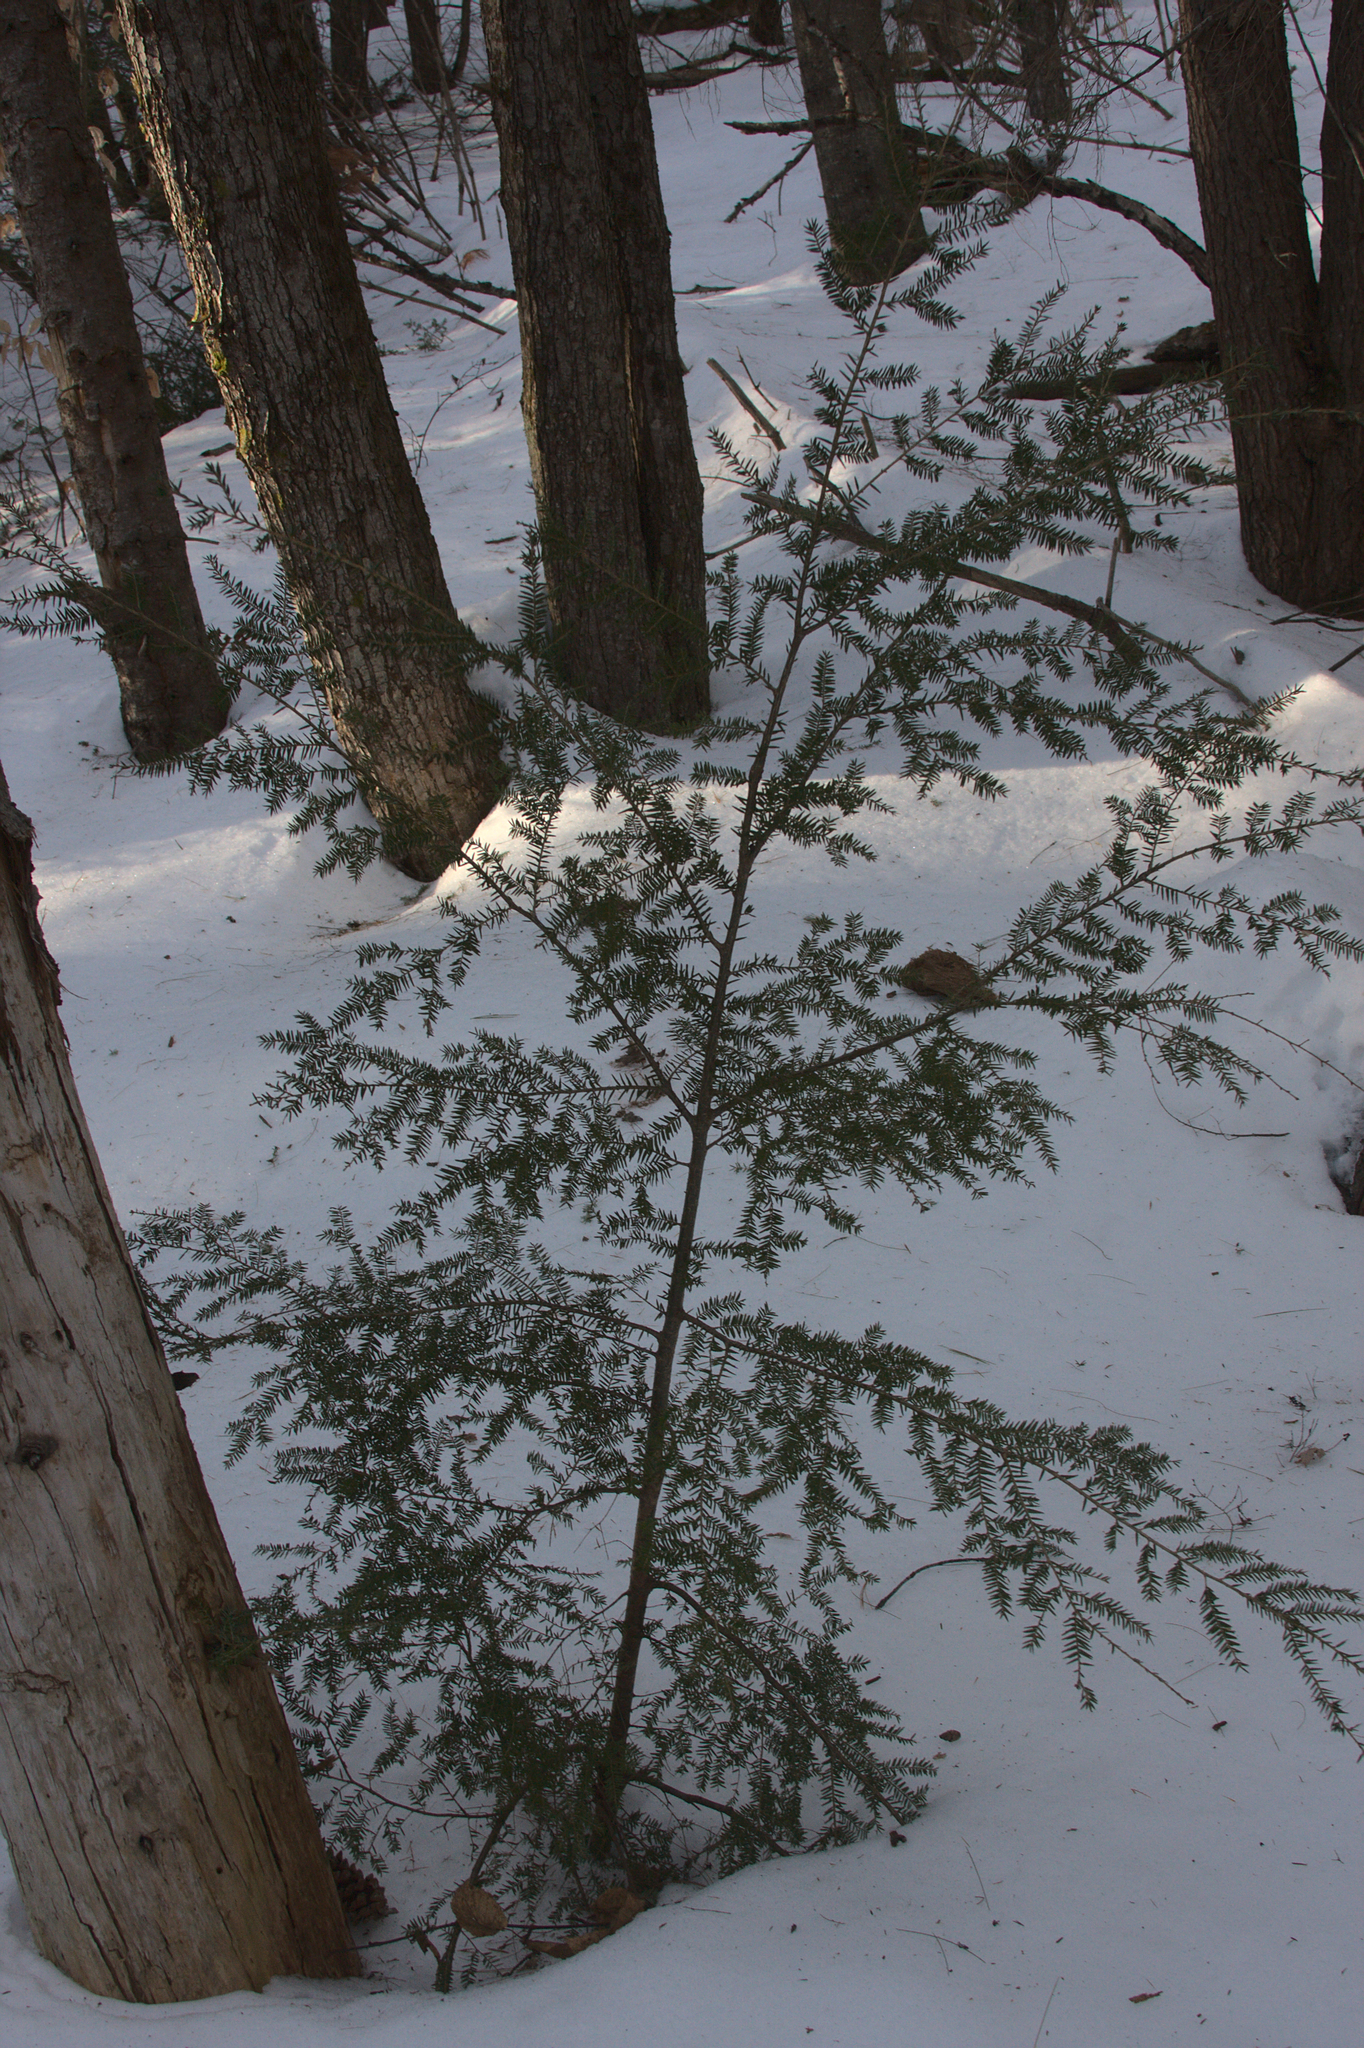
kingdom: Plantae
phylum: Tracheophyta
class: Pinopsida
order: Pinales
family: Pinaceae
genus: Tsuga
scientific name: Tsuga canadensis
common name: Eastern hemlock
